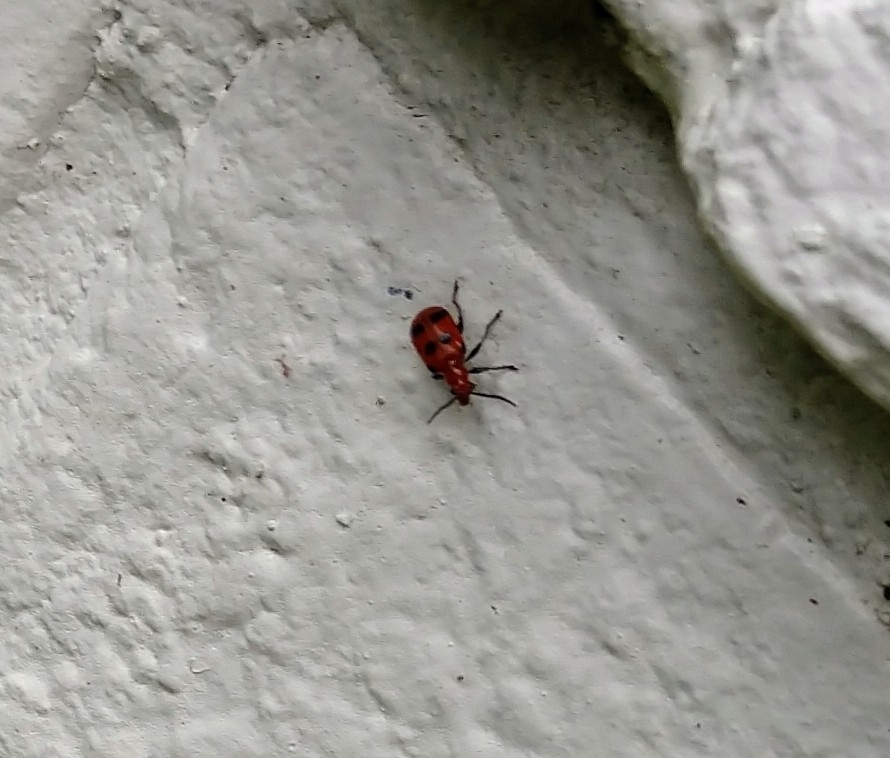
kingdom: Animalia
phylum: Arthropoda
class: Insecta
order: Coleoptera
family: Chrysomelidae
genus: Neolema
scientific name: Neolema sexpunctata
